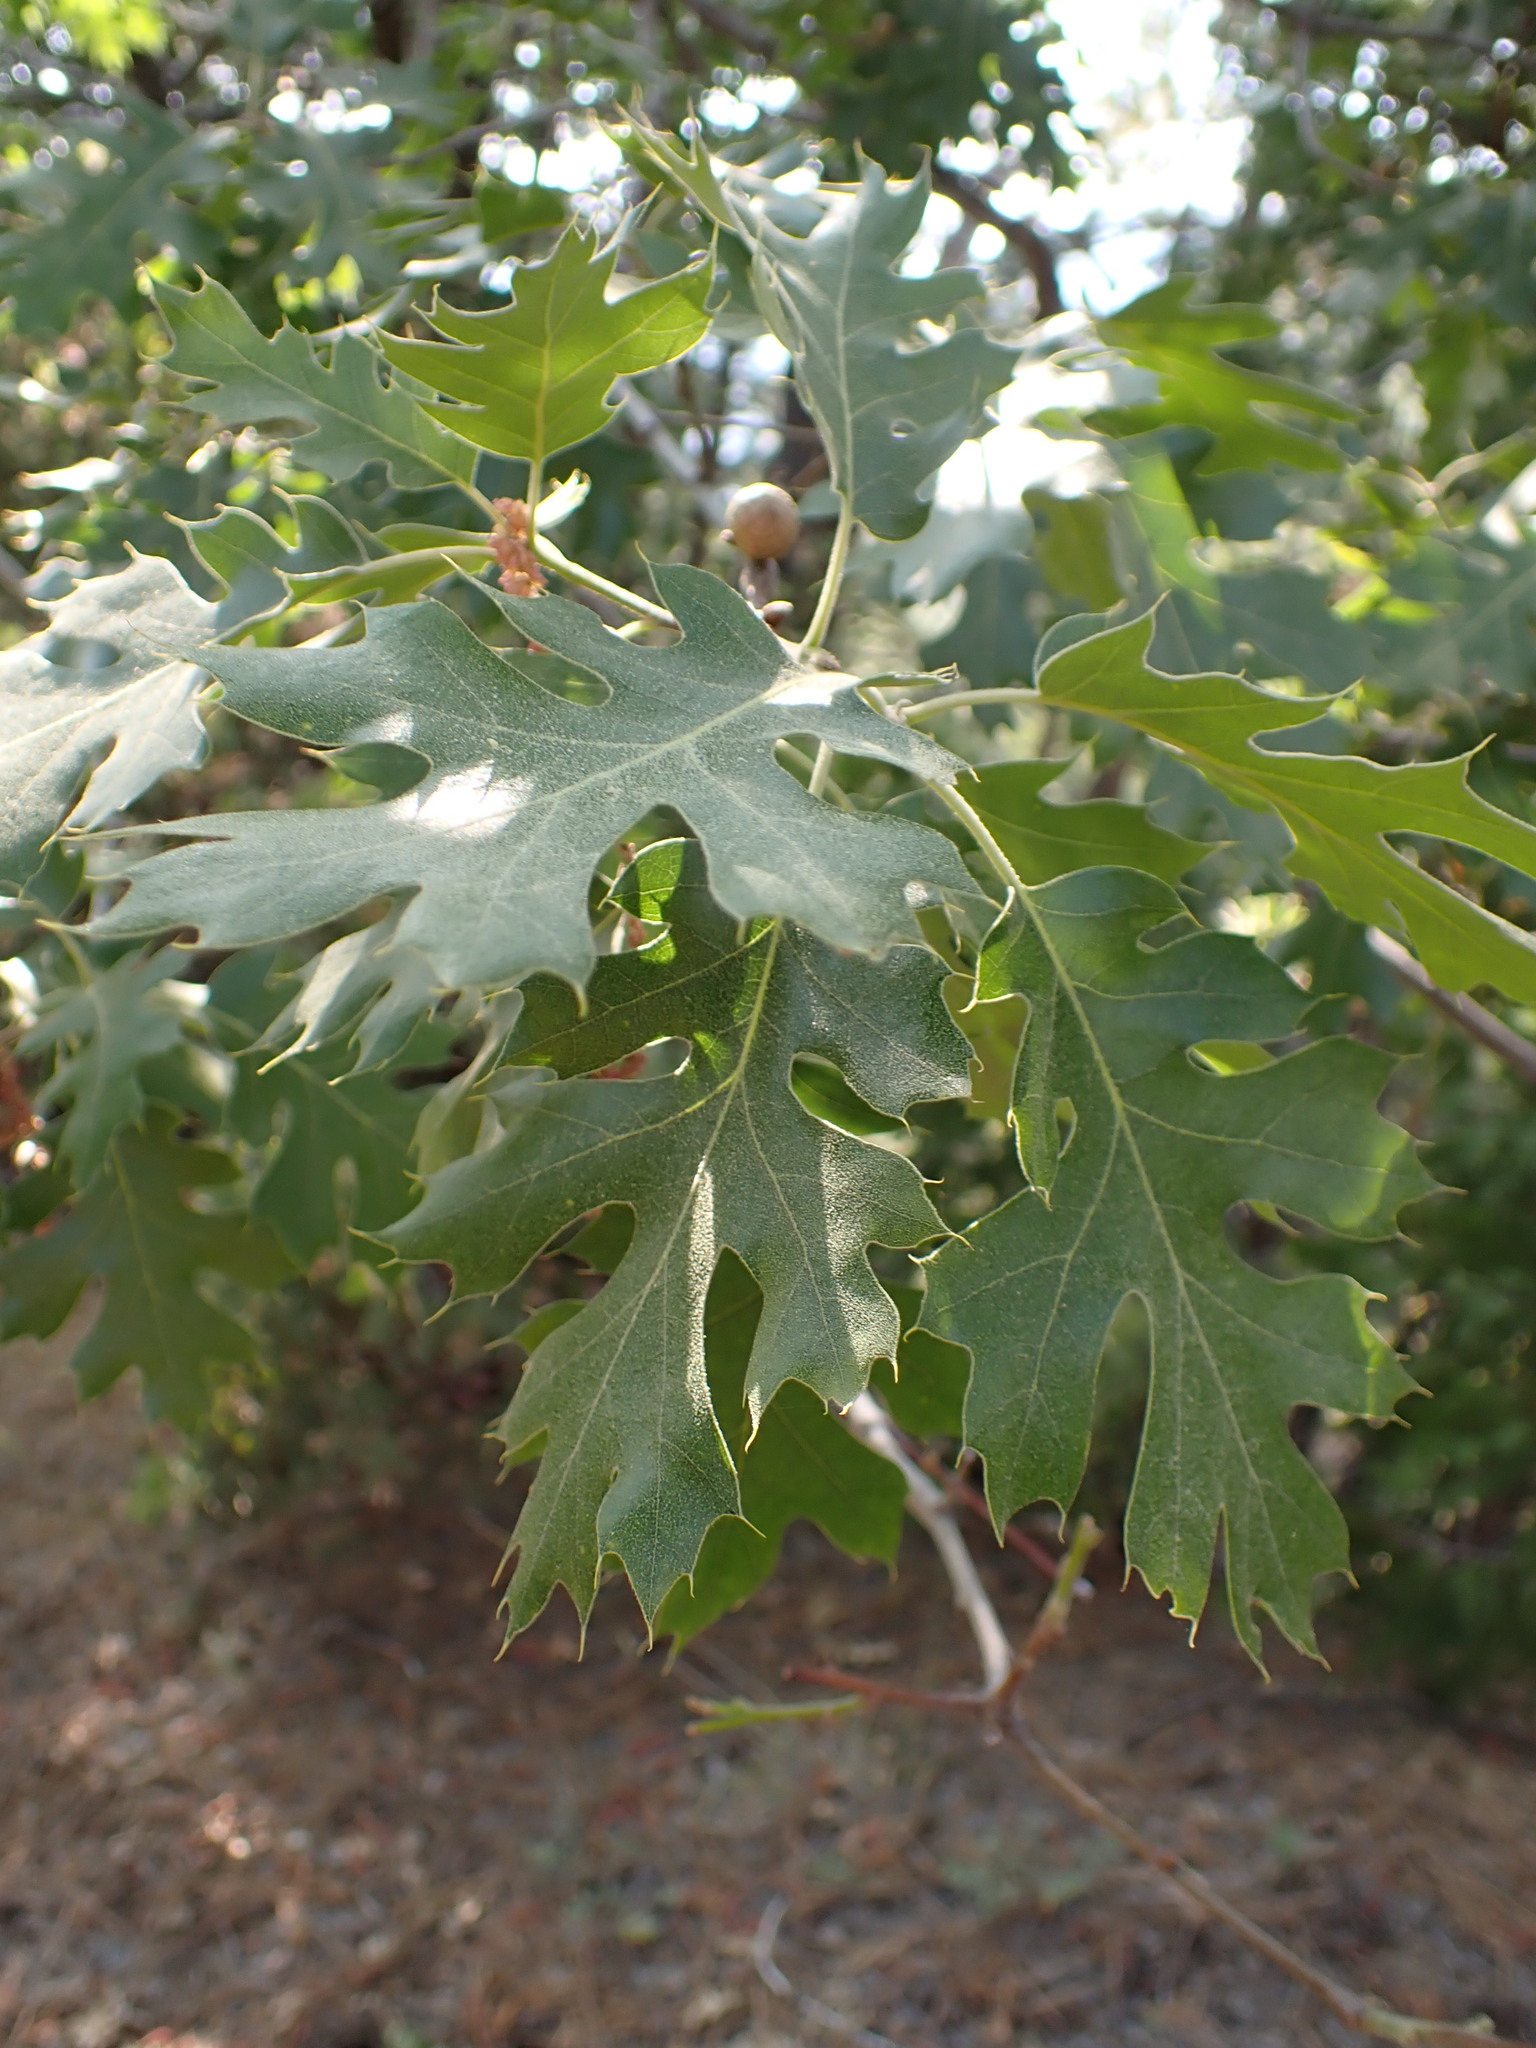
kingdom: Plantae
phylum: Tracheophyta
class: Magnoliopsida
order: Fagales
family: Fagaceae
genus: Quercus
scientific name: Quercus kelloggii
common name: California black oak
